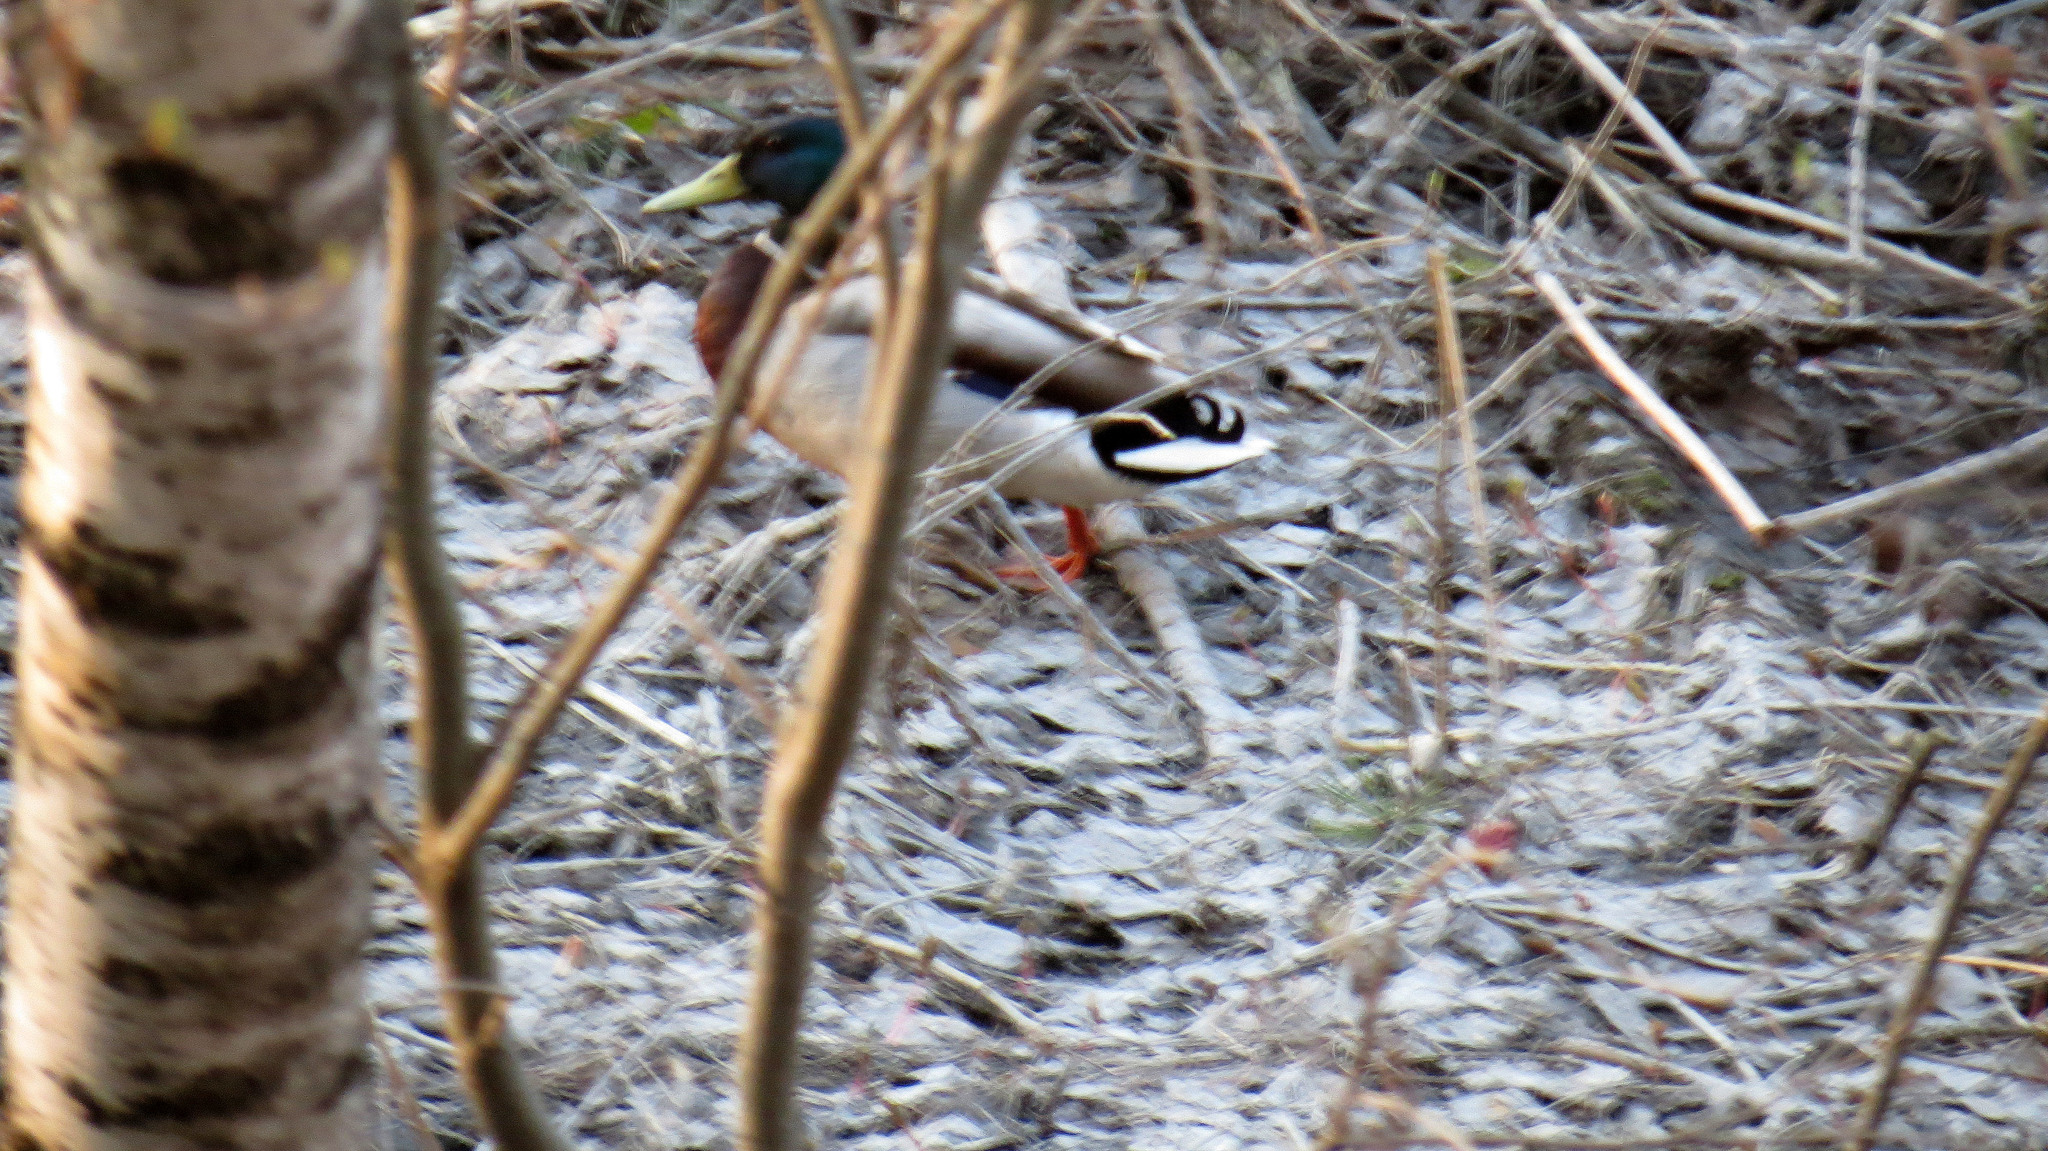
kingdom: Animalia
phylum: Chordata
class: Aves
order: Anseriformes
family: Anatidae
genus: Anas
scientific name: Anas platyrhynchos
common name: Mallard
